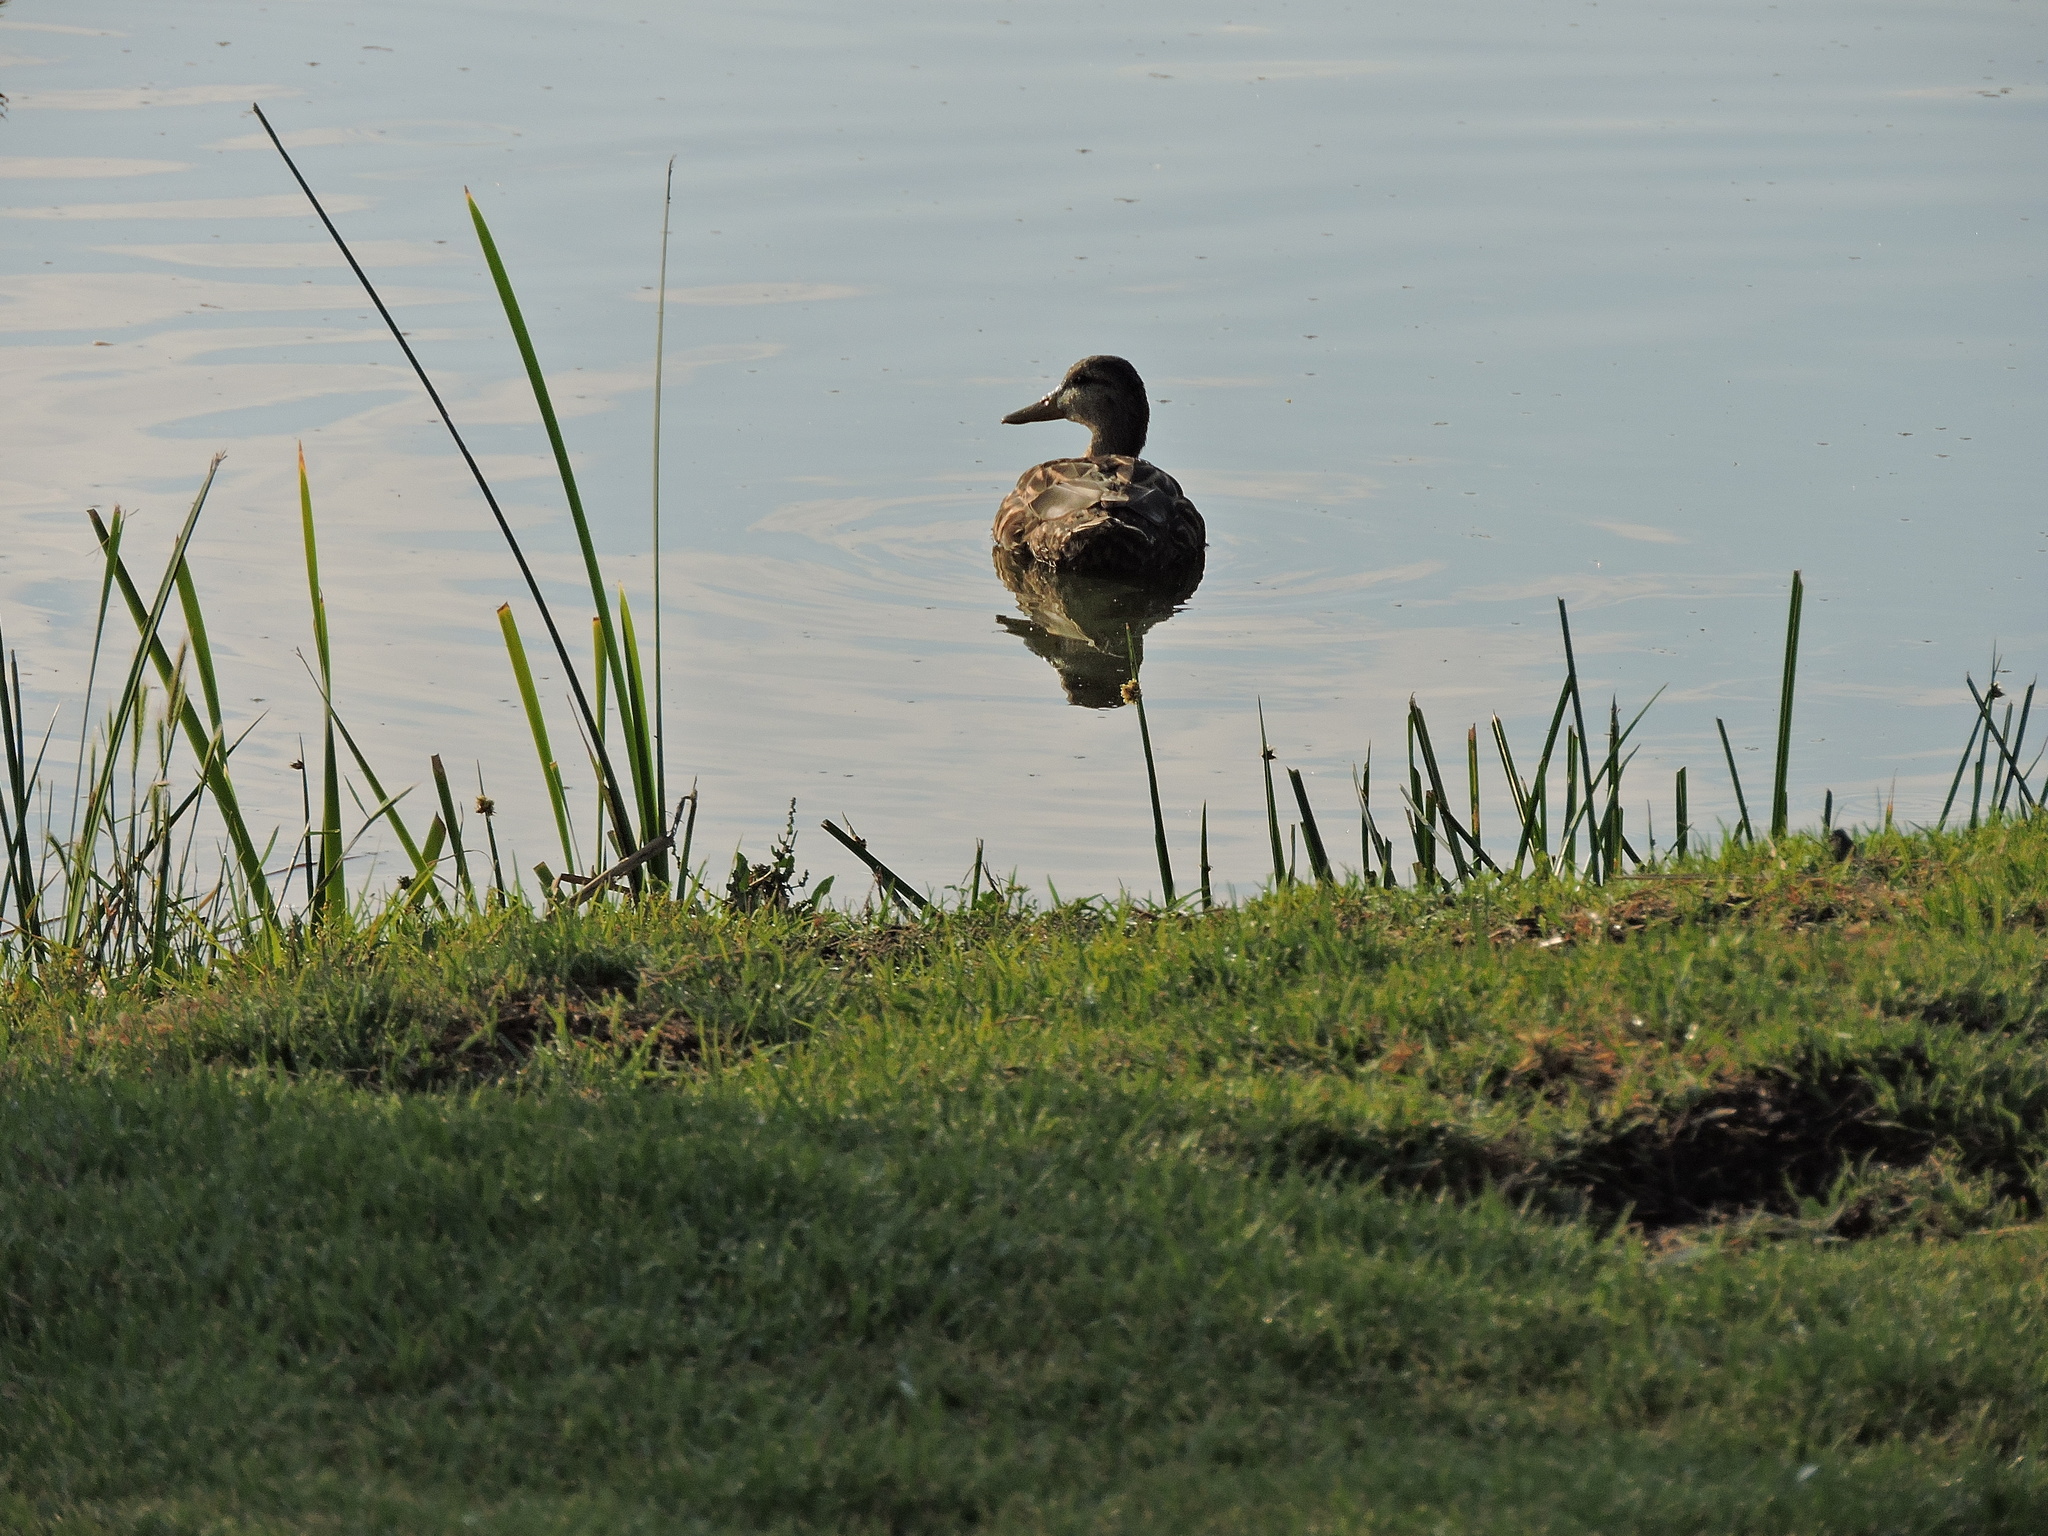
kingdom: Animalia
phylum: Chordata
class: Aves
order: Anseriformes
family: Anatidae
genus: Anas
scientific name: Anas diazi
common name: Mexican duck
